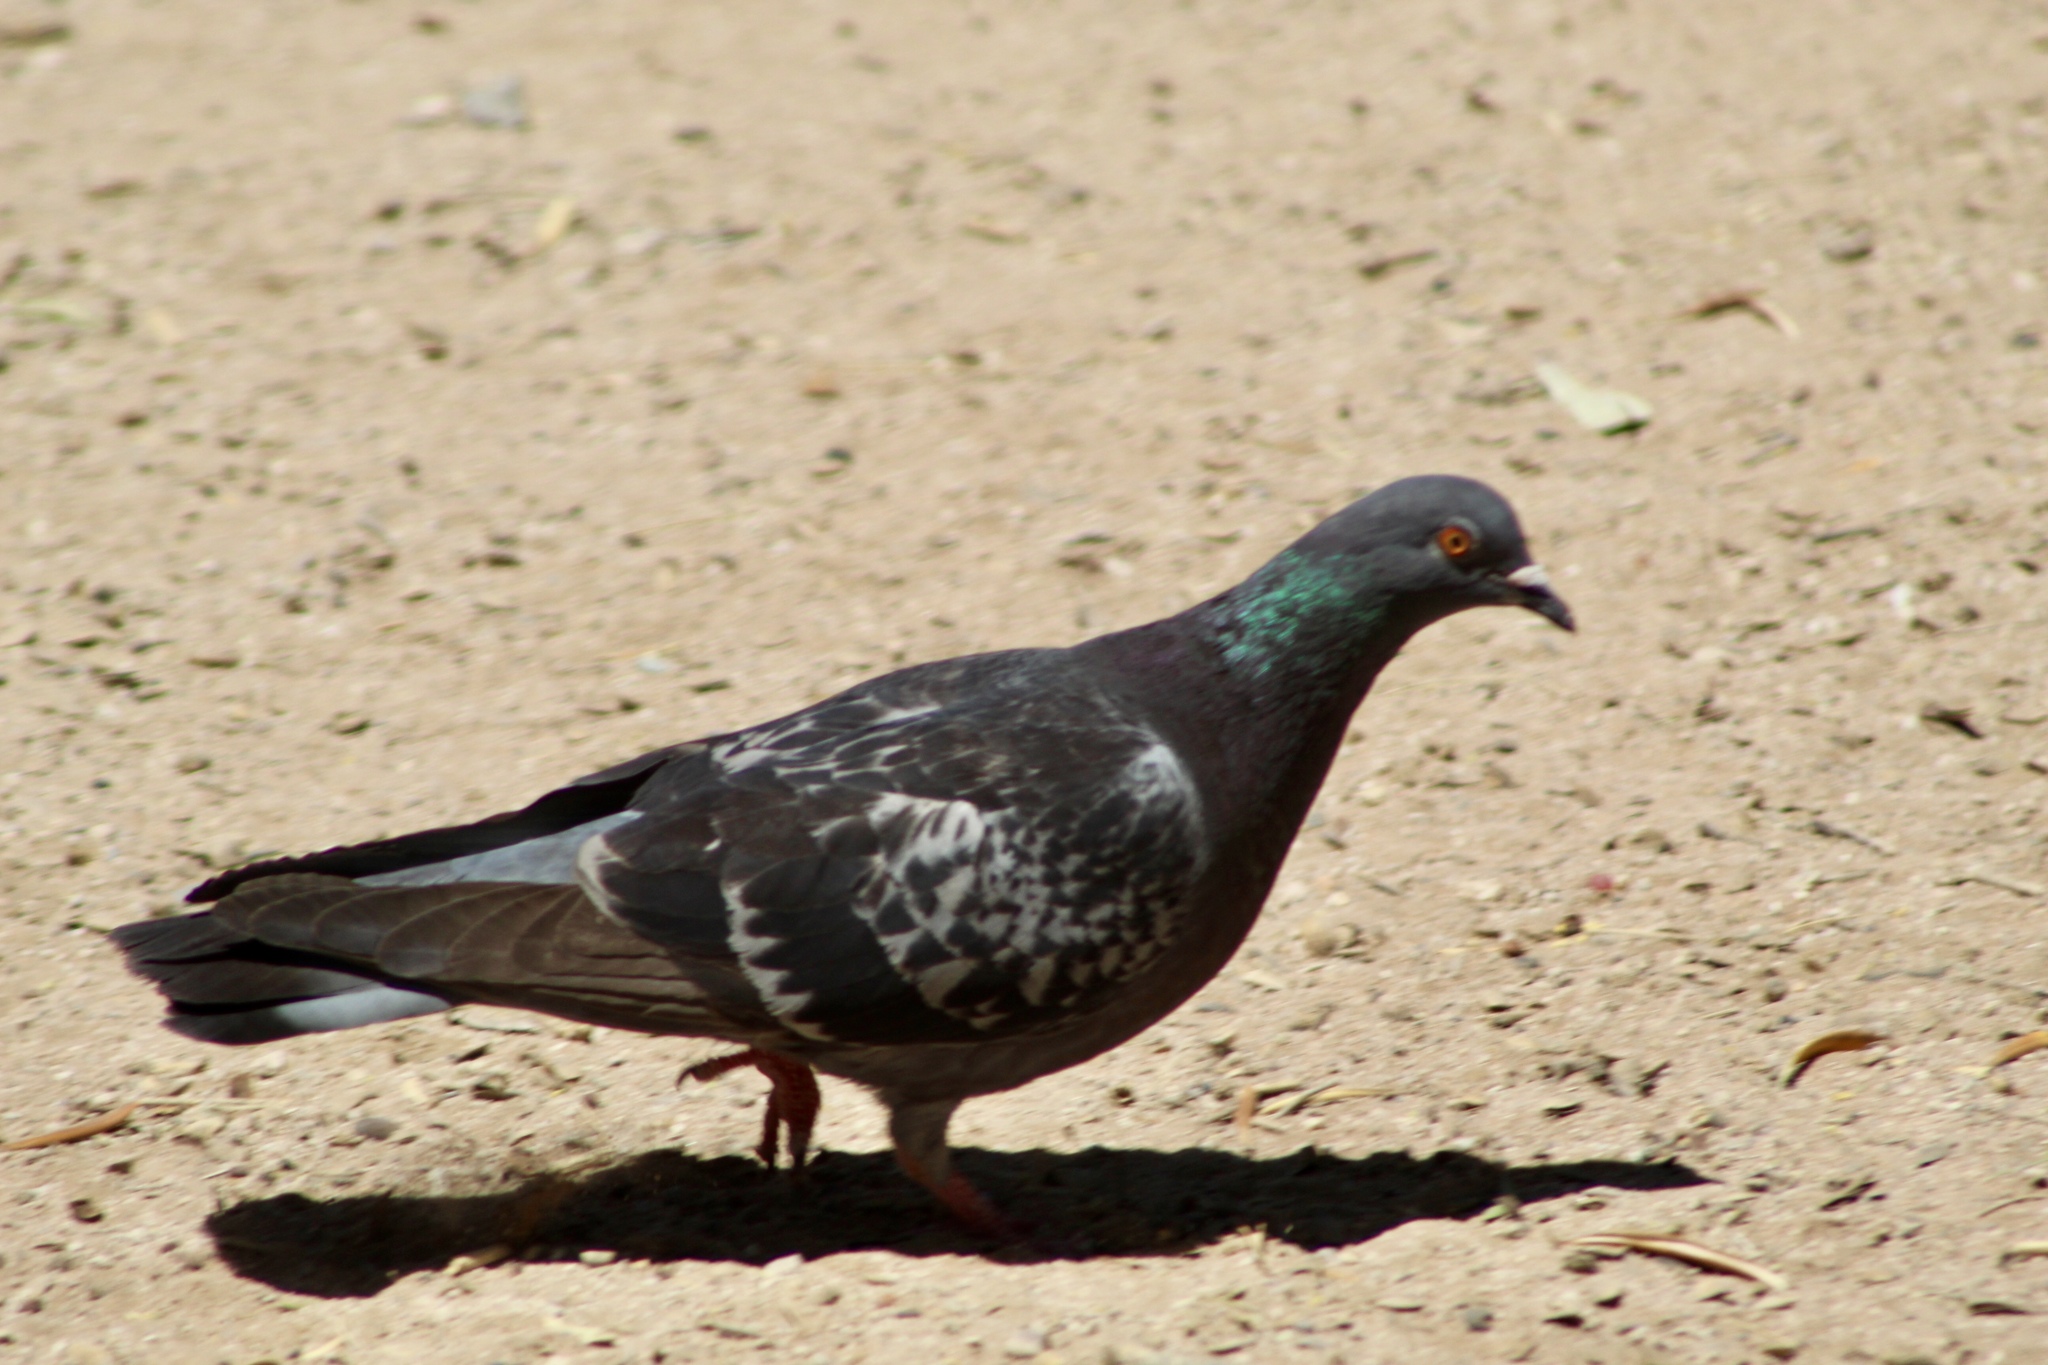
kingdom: Animalia
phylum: Chordata
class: Aves
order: Columbiformes
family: Columbidae
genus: Columba
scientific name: Columba livia
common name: Rock pigeon
